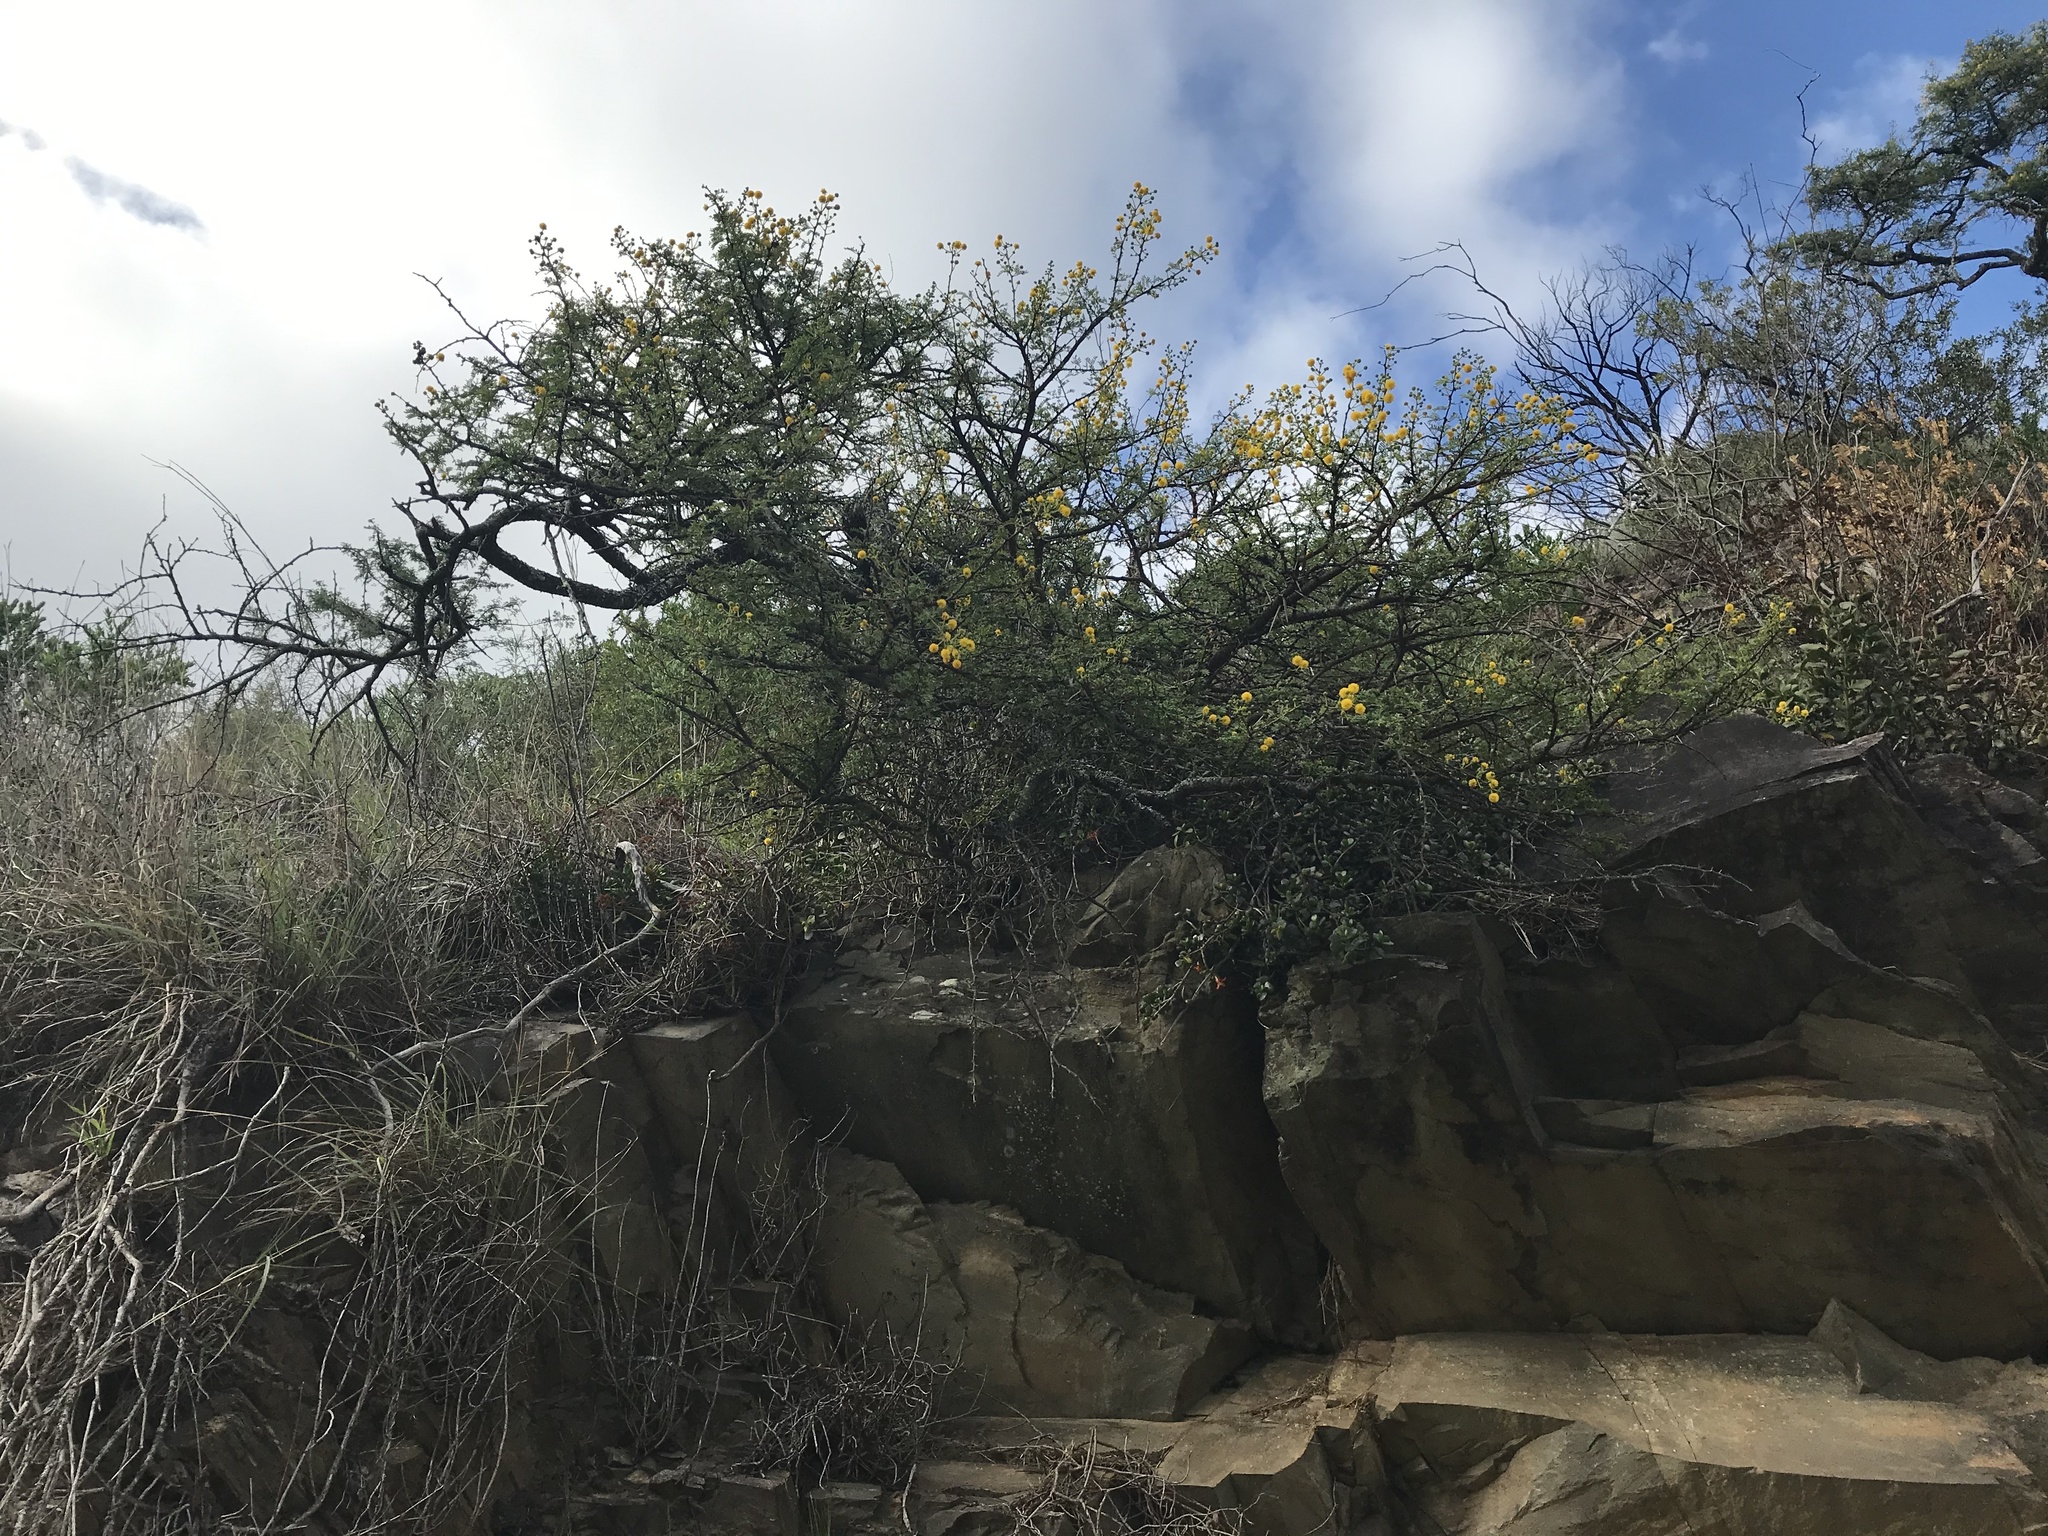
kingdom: Plantae
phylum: Tracheophyta
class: Magnoliopsida
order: Fabales
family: Fabaceae
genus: Vachellia
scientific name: Vachellia karroo
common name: Sweet thorn
